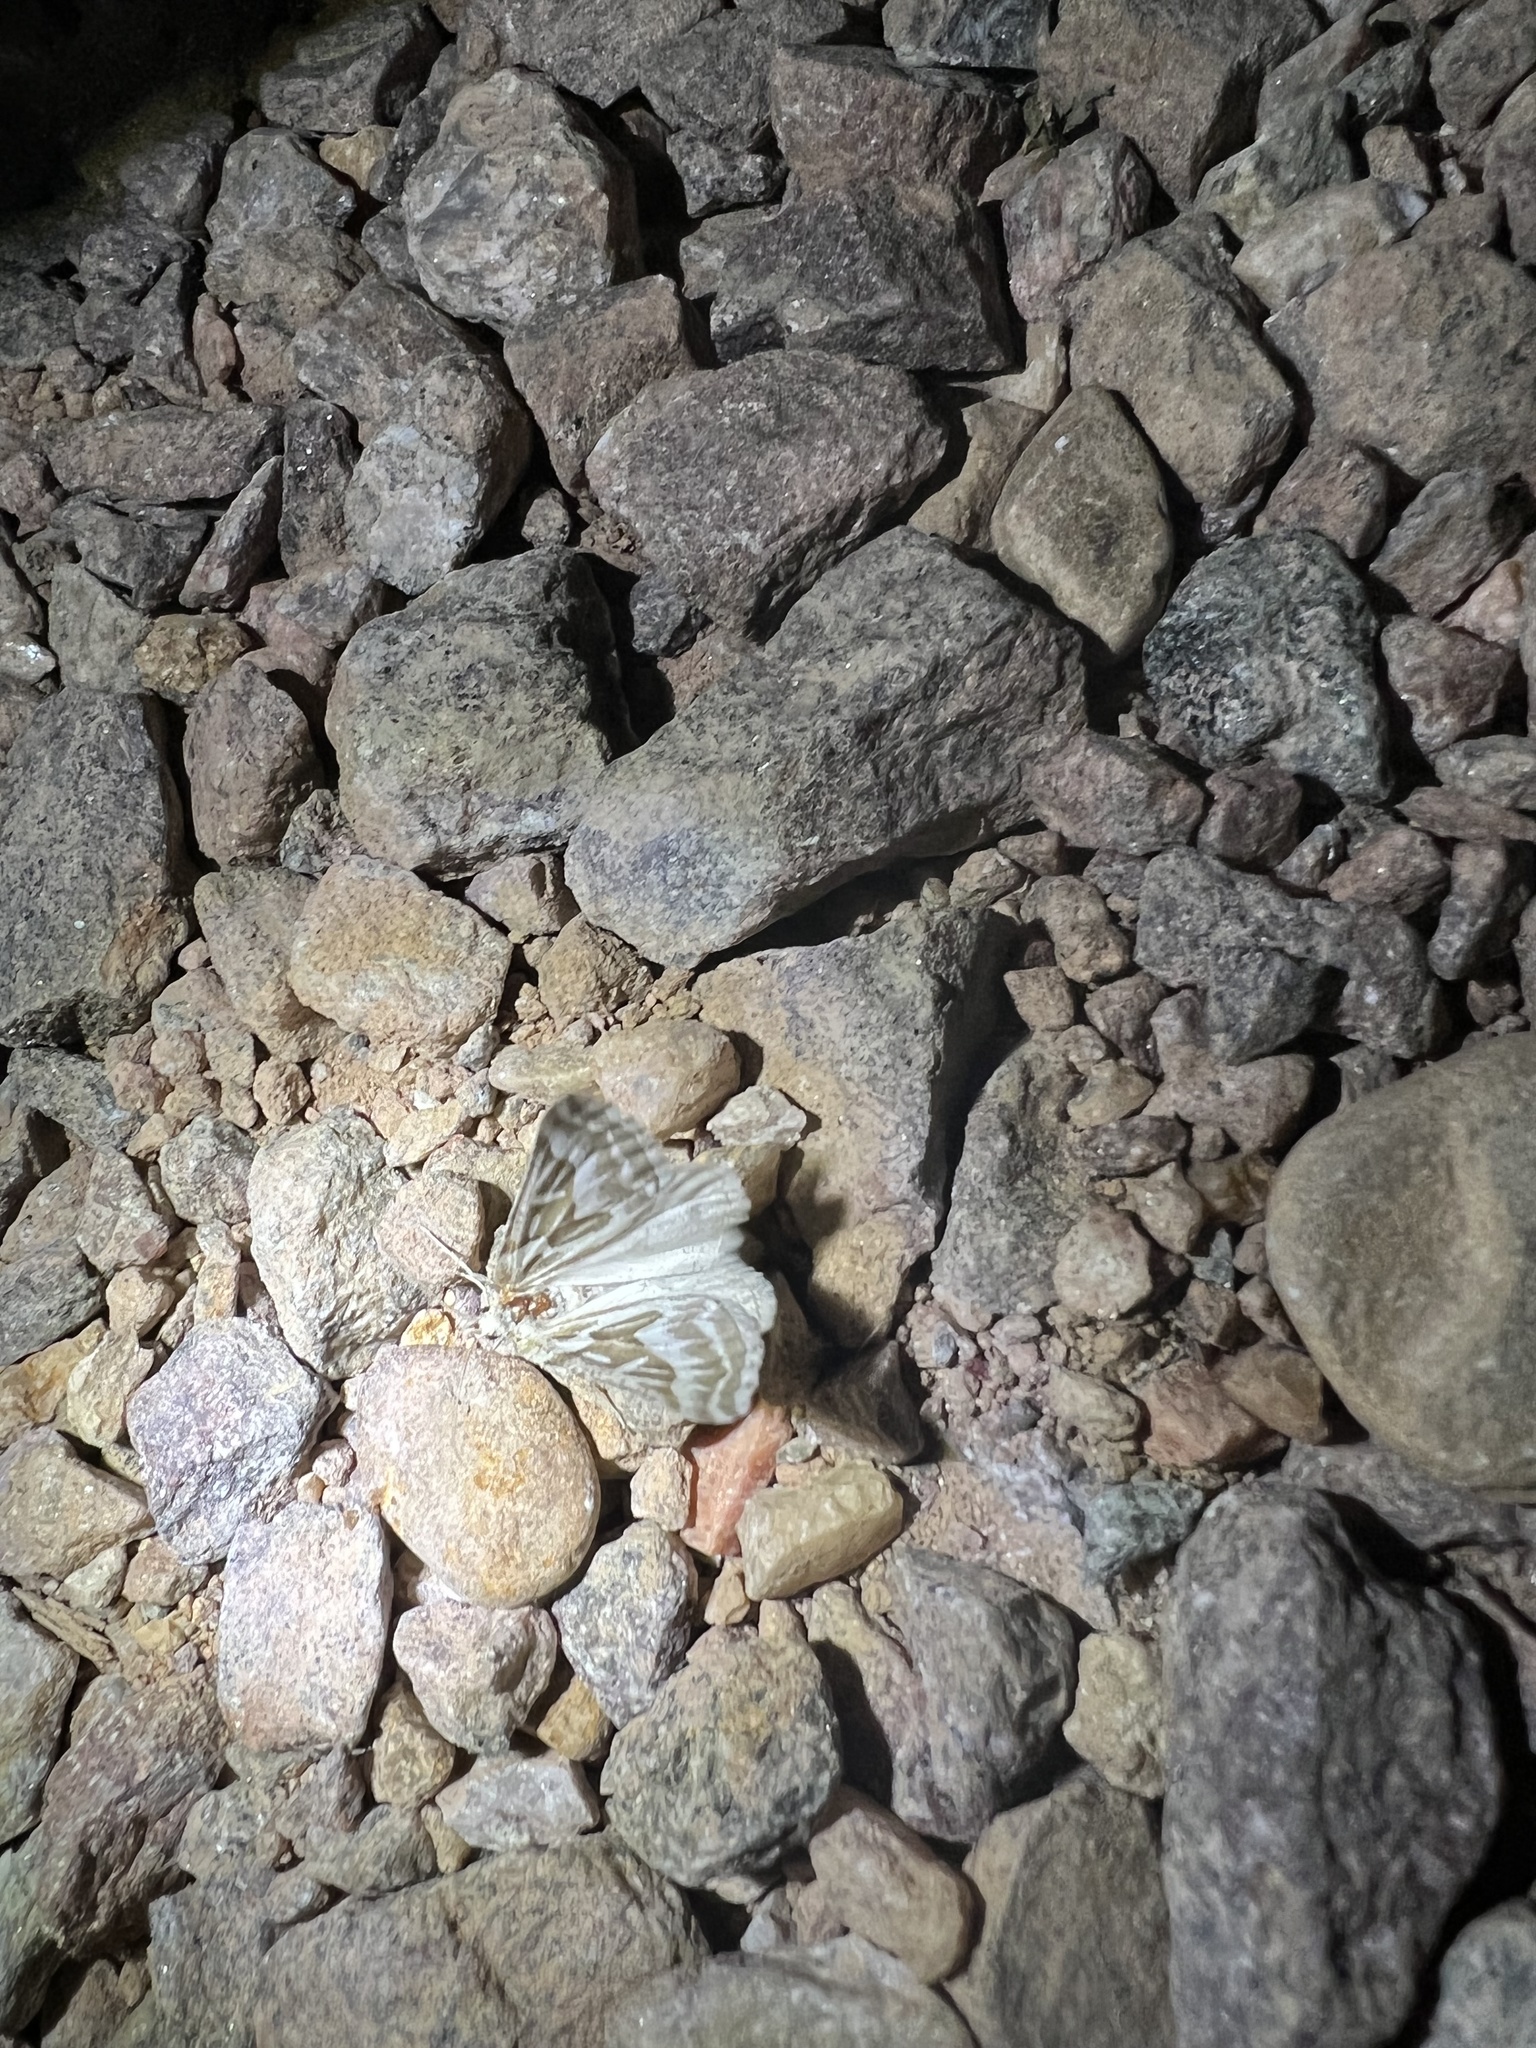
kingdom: Animalia
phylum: Arthropoda
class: Insecta
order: Lepidoptera
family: Geometridae
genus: Plataea
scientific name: Plataea trilinearia
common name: Sagebrush girdle moth
